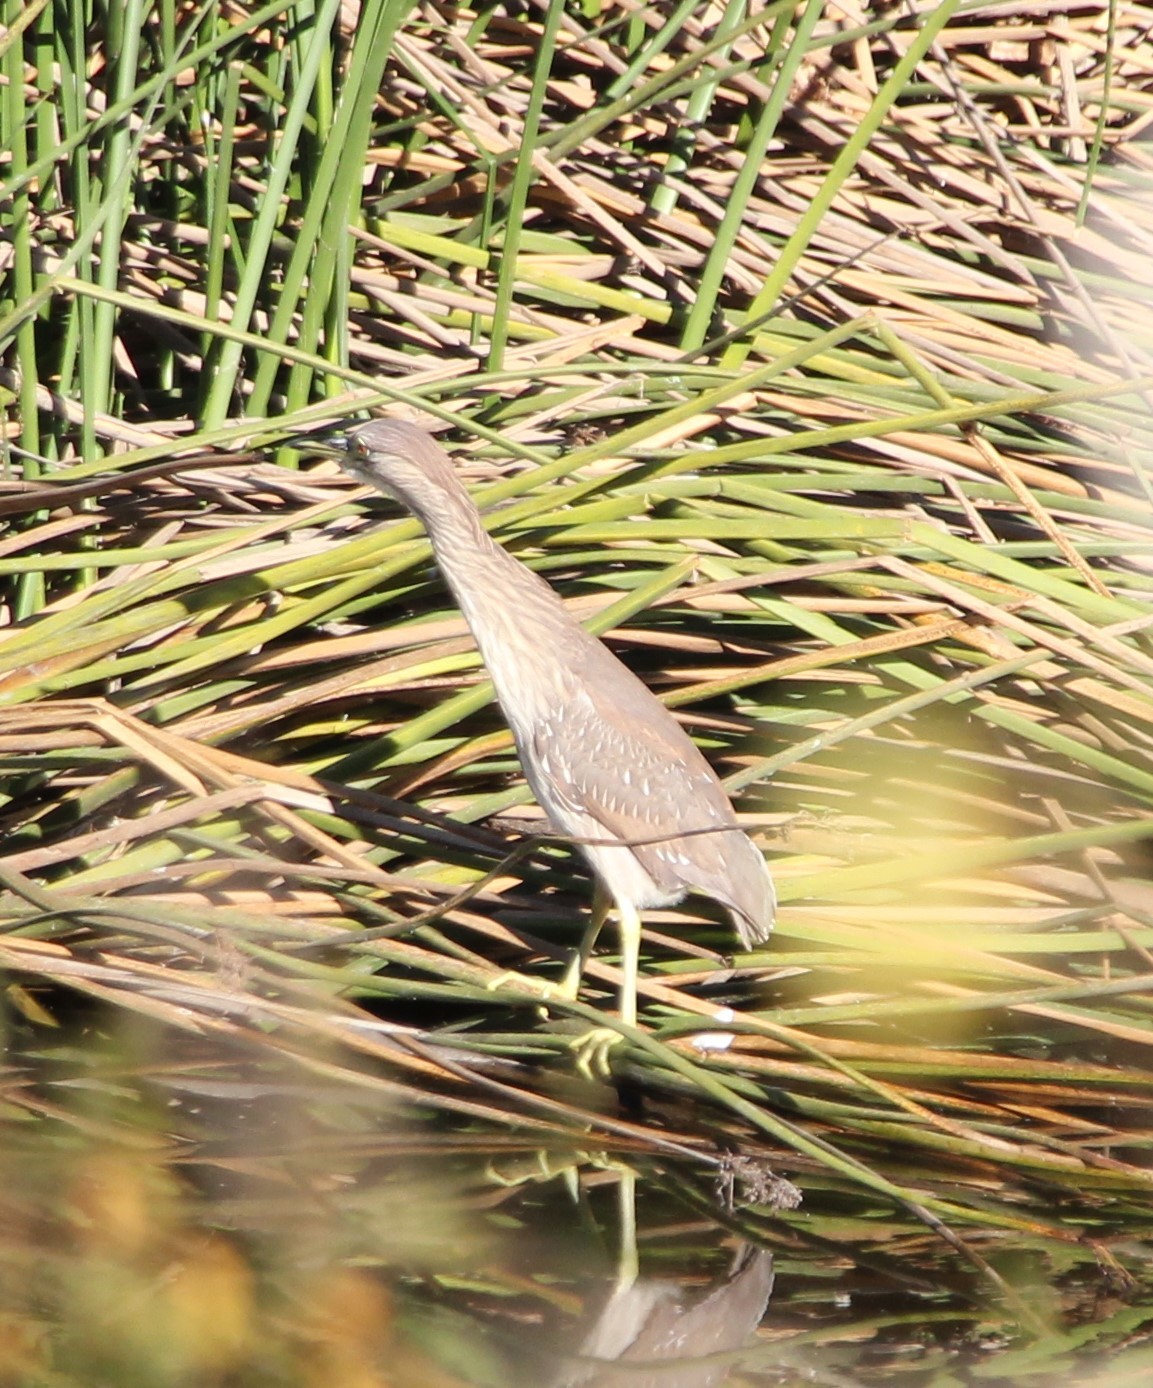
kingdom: Animalia
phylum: Chordata
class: Aves
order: Pelecaniformes
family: Ardeidae
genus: Nycticorax
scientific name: Nycticorax nycticorax
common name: Black-crowned night heron
